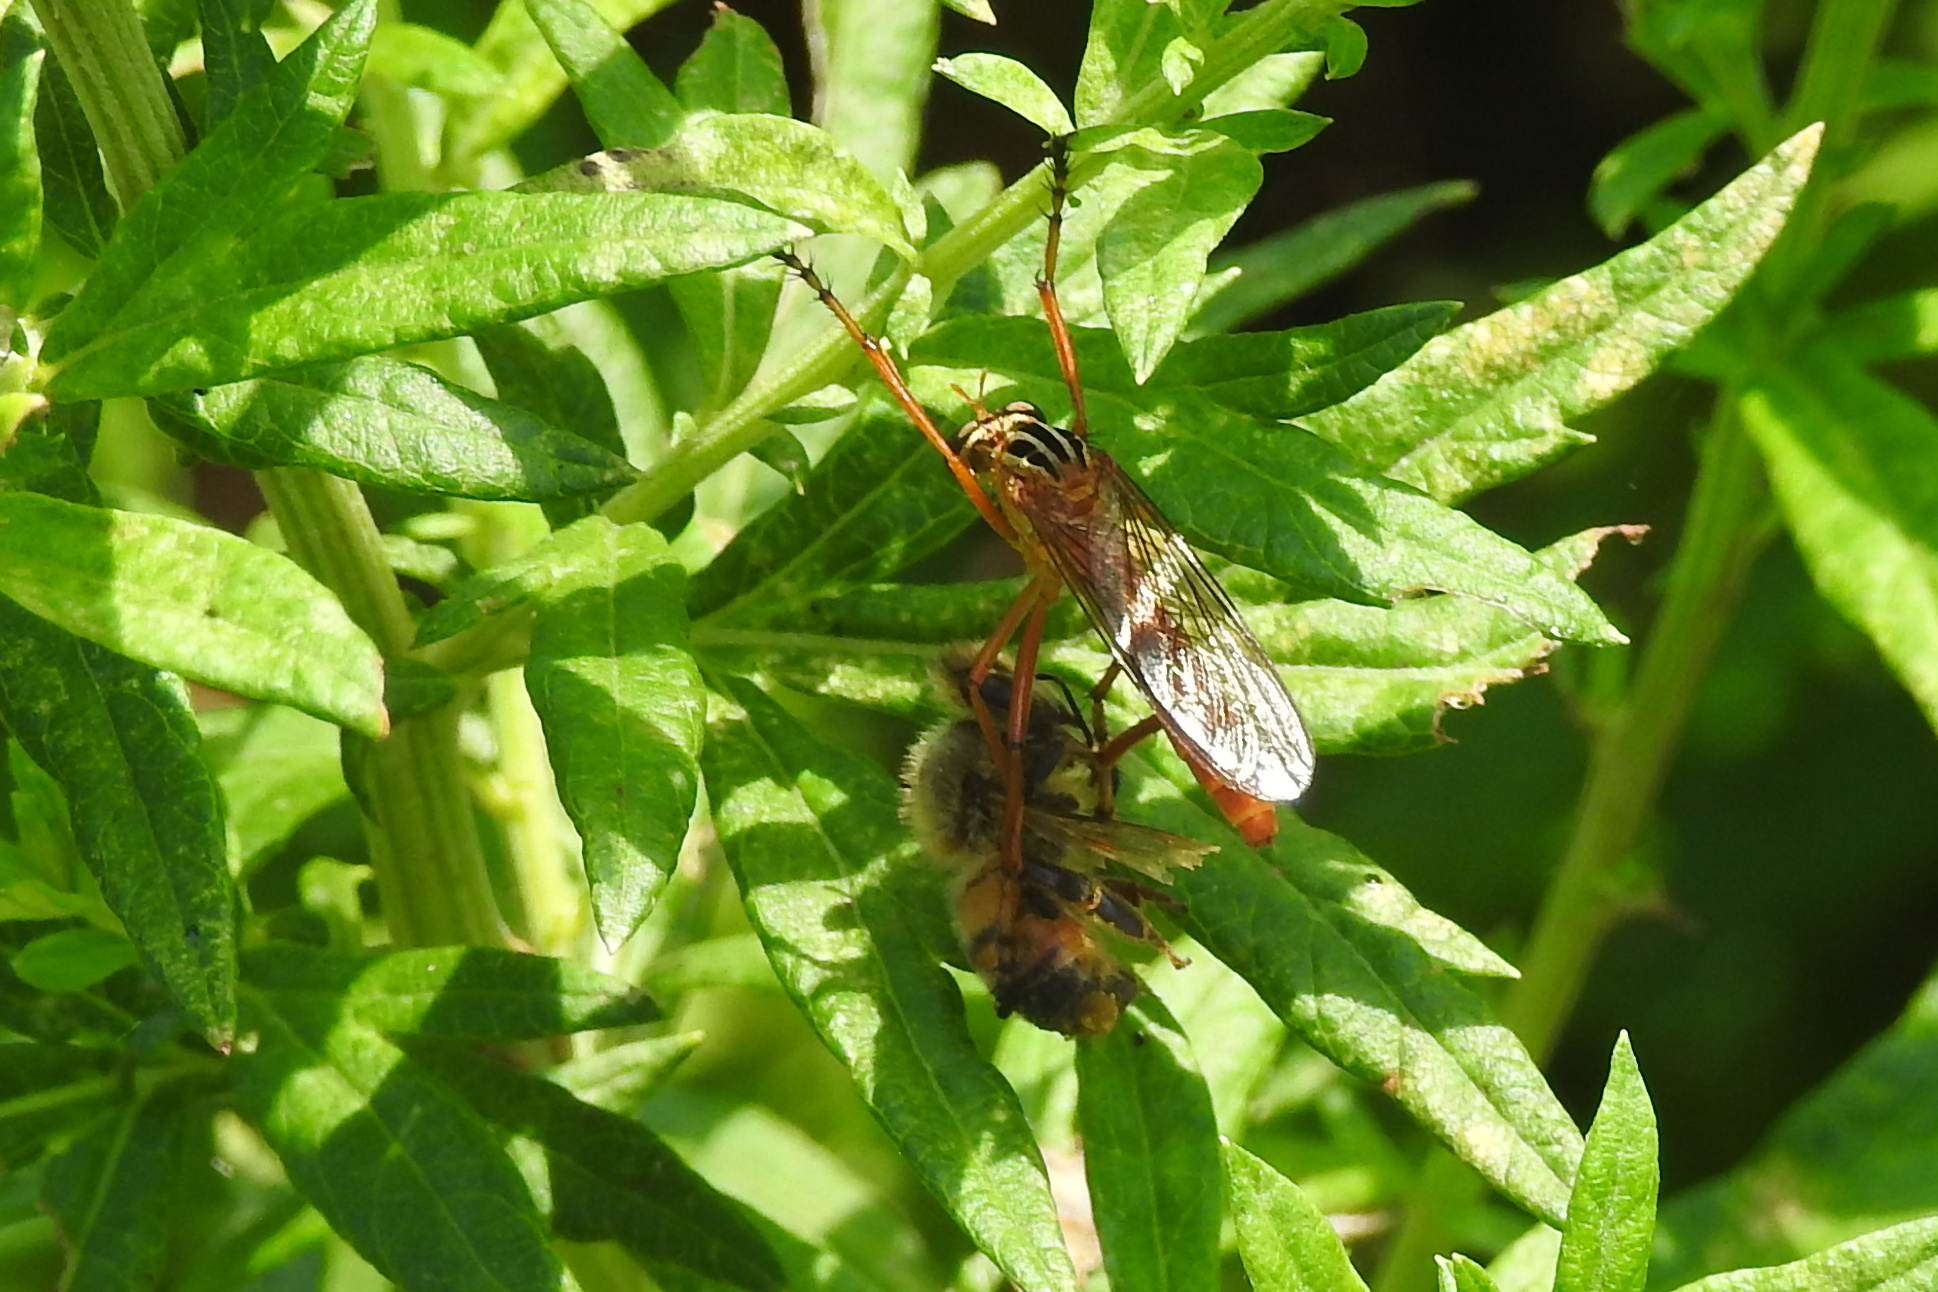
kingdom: Animalia
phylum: Arthropoda
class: Insecta
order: Hymenoptera
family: Apidae
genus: Apis
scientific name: Apis mellifera
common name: Honey bee
